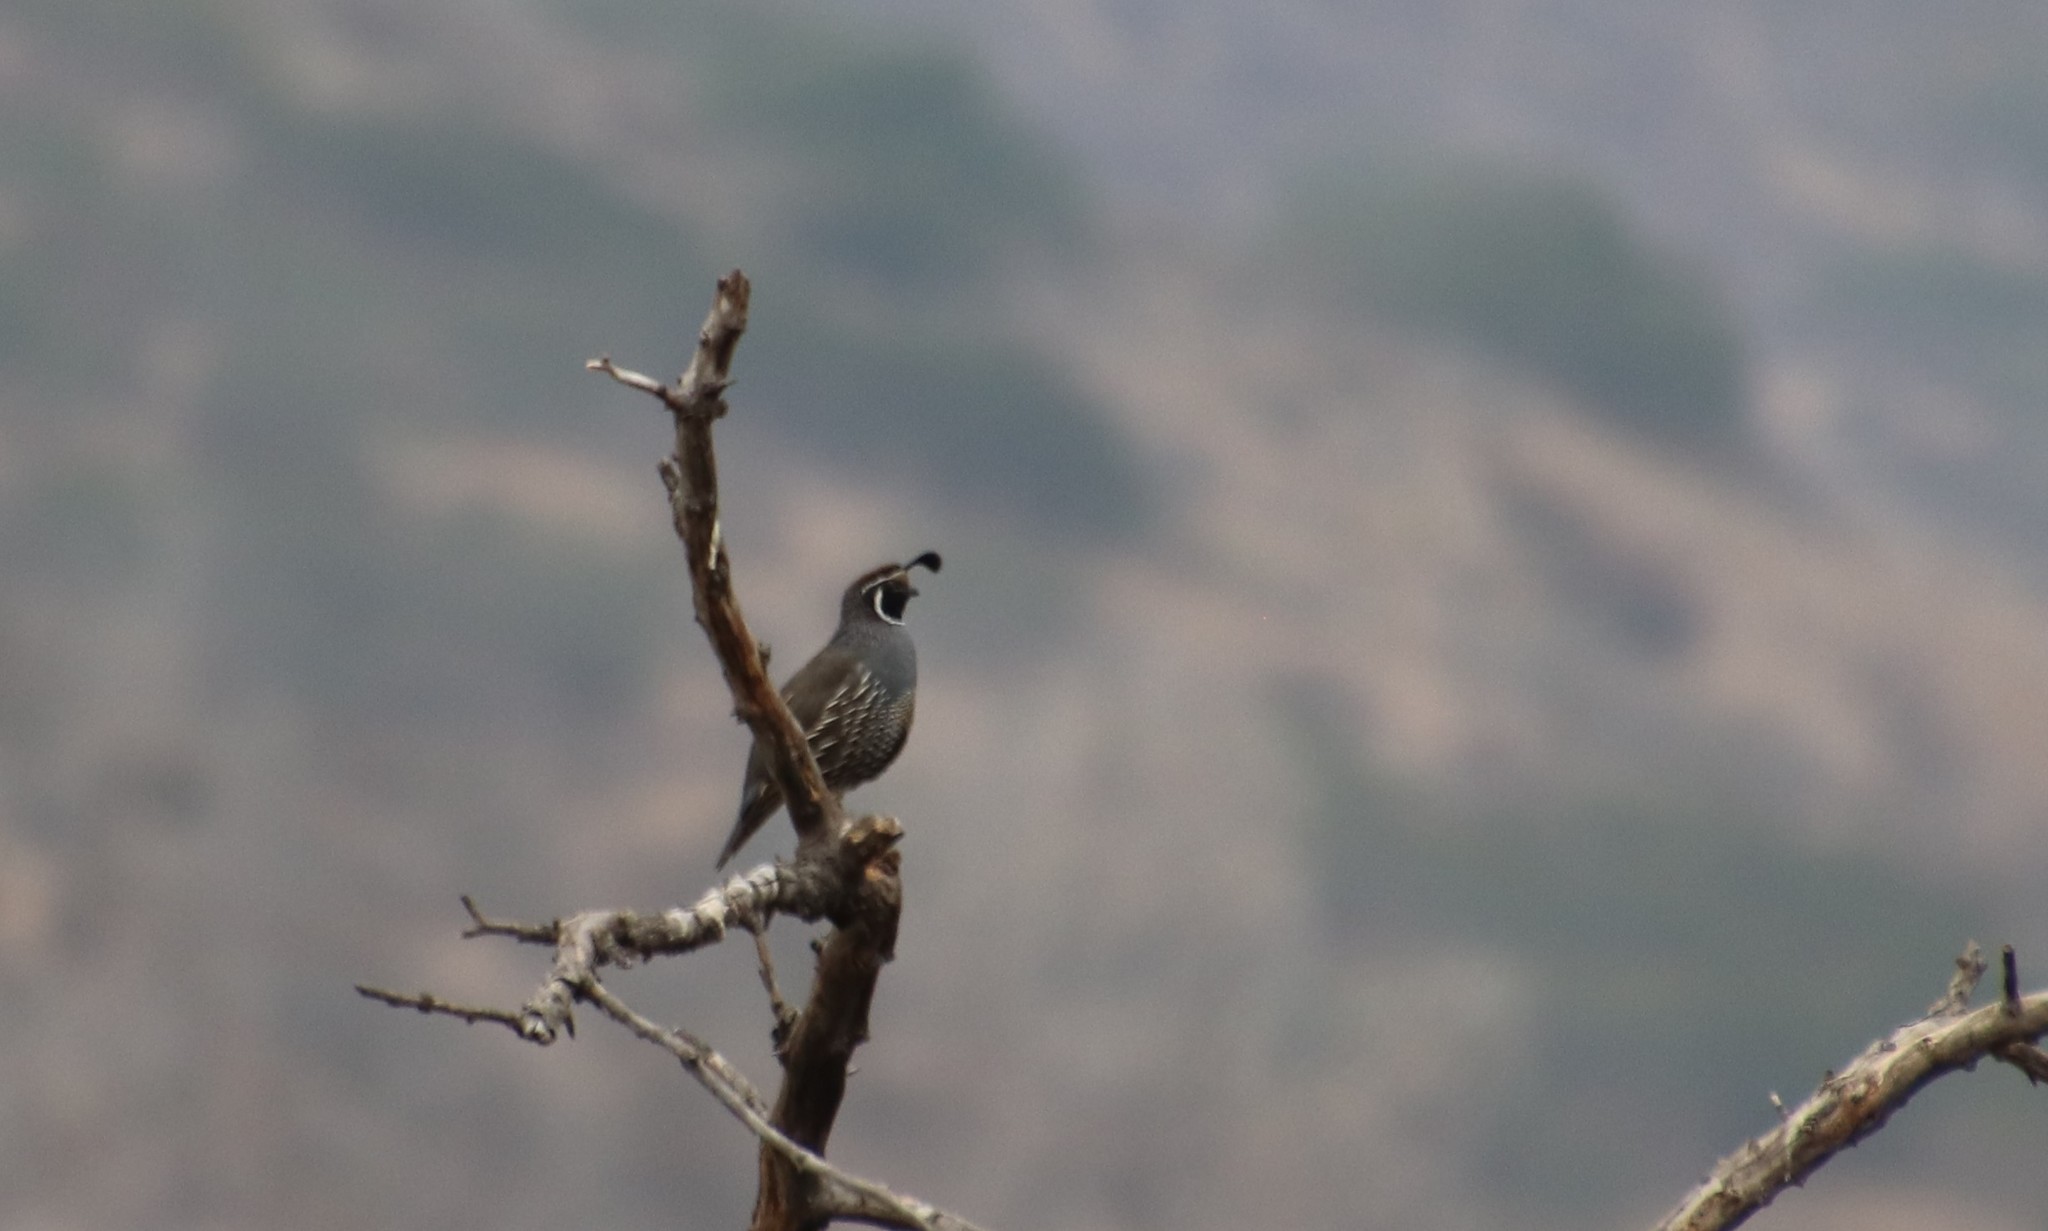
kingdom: Animalia
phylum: Chordata
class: Aves
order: Galliformes
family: Odontophoridae
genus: Callipepla
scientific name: Callipepla californica
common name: California quail
